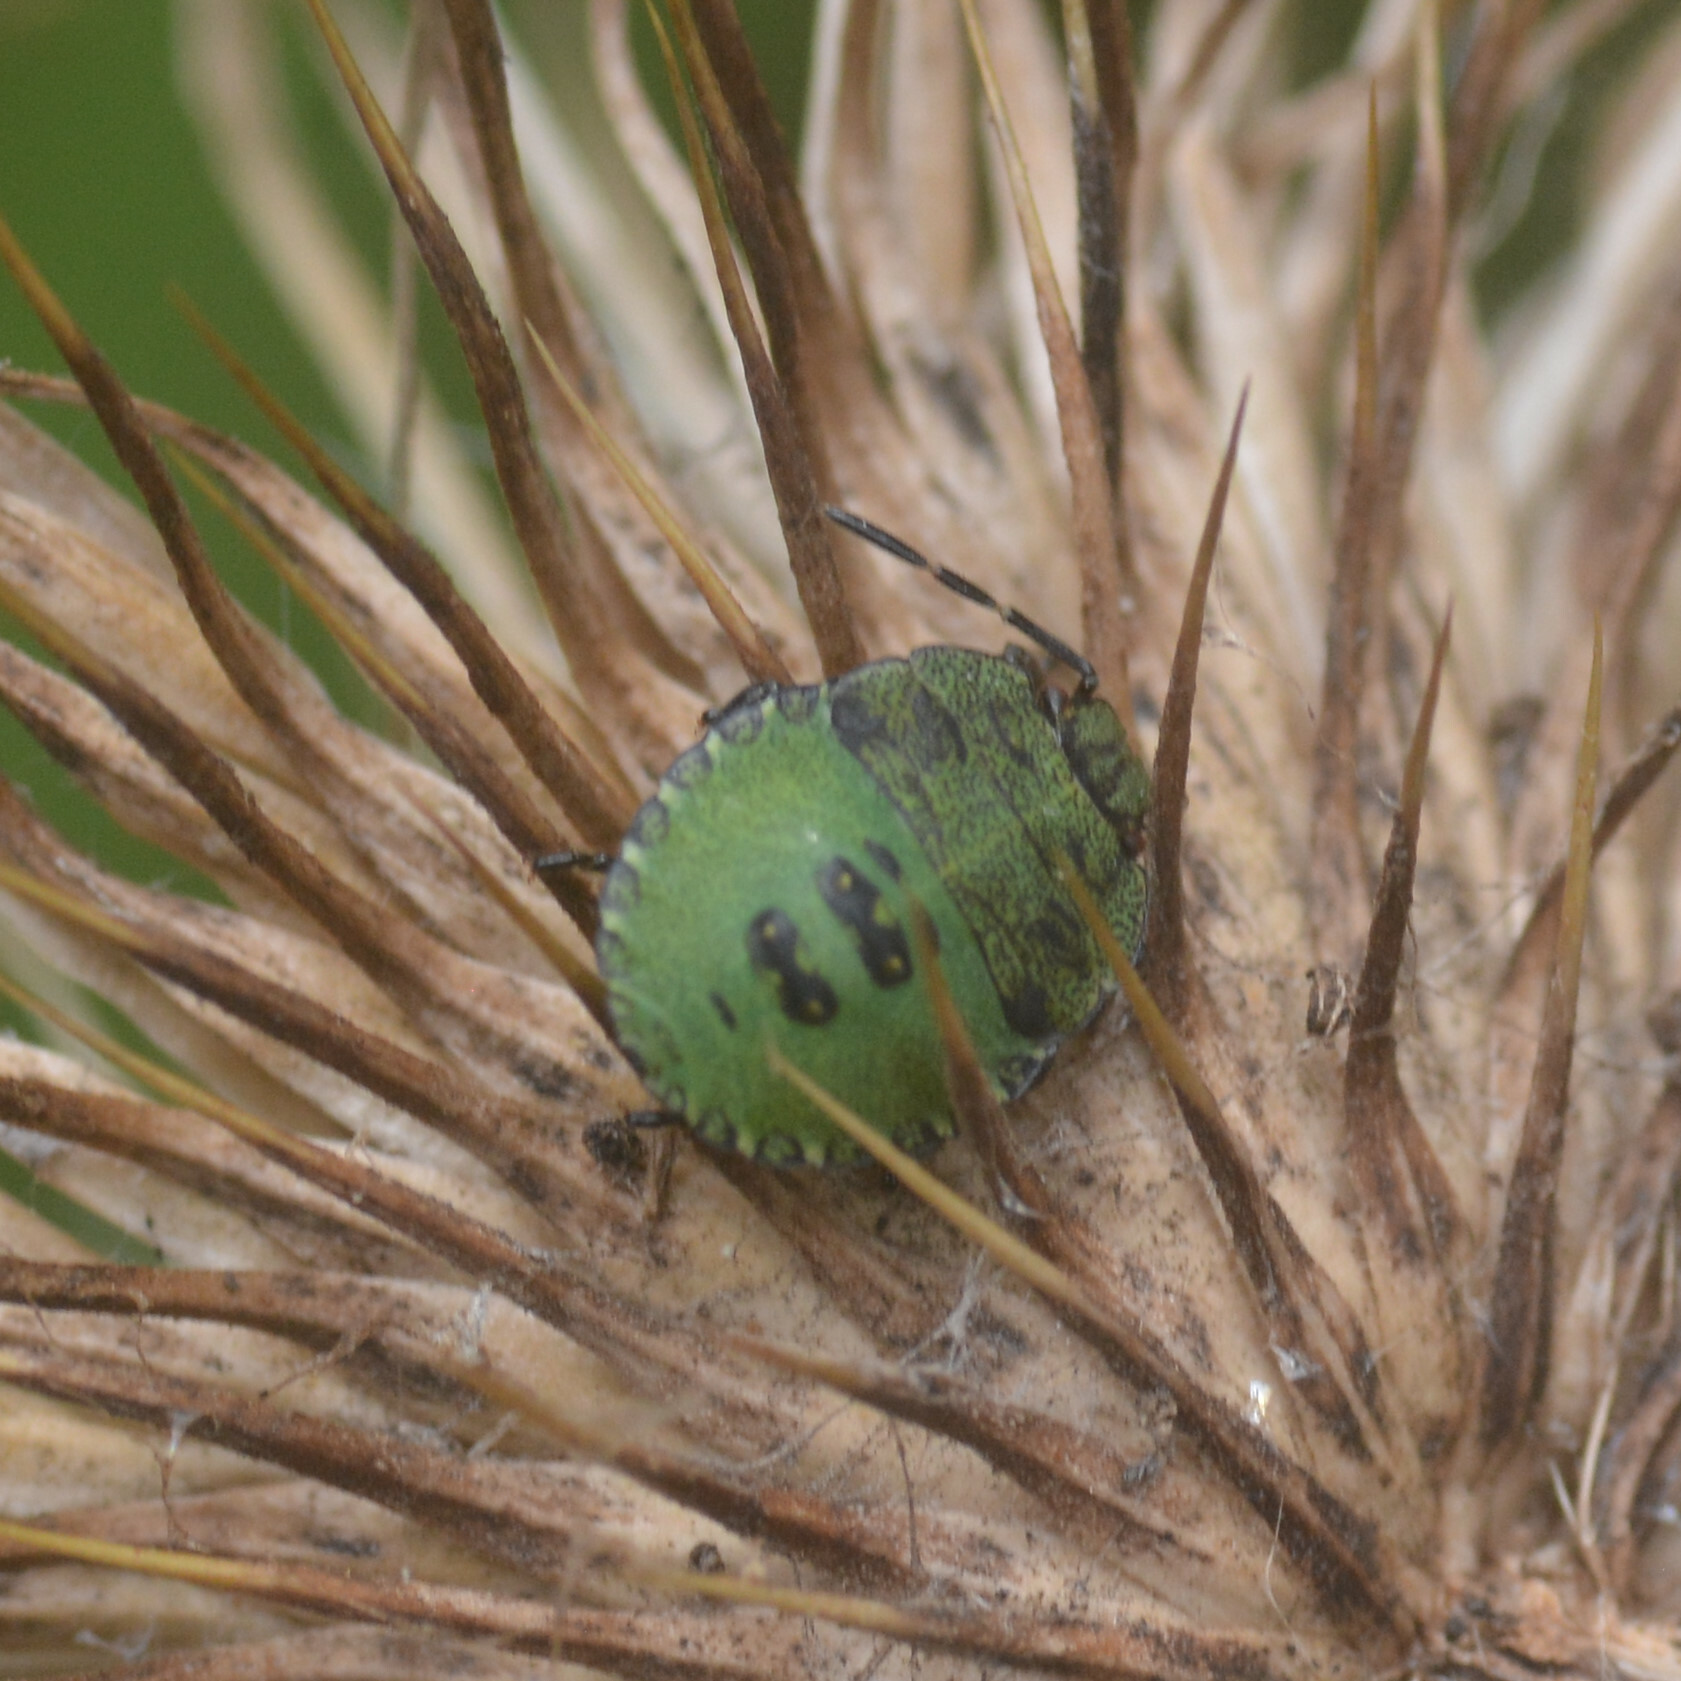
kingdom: Animalia
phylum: Arthropoda
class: Insecta
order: Hemiptera
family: Pentatomidae
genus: Palomena
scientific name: Palomena prasina
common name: Green shieldbug
